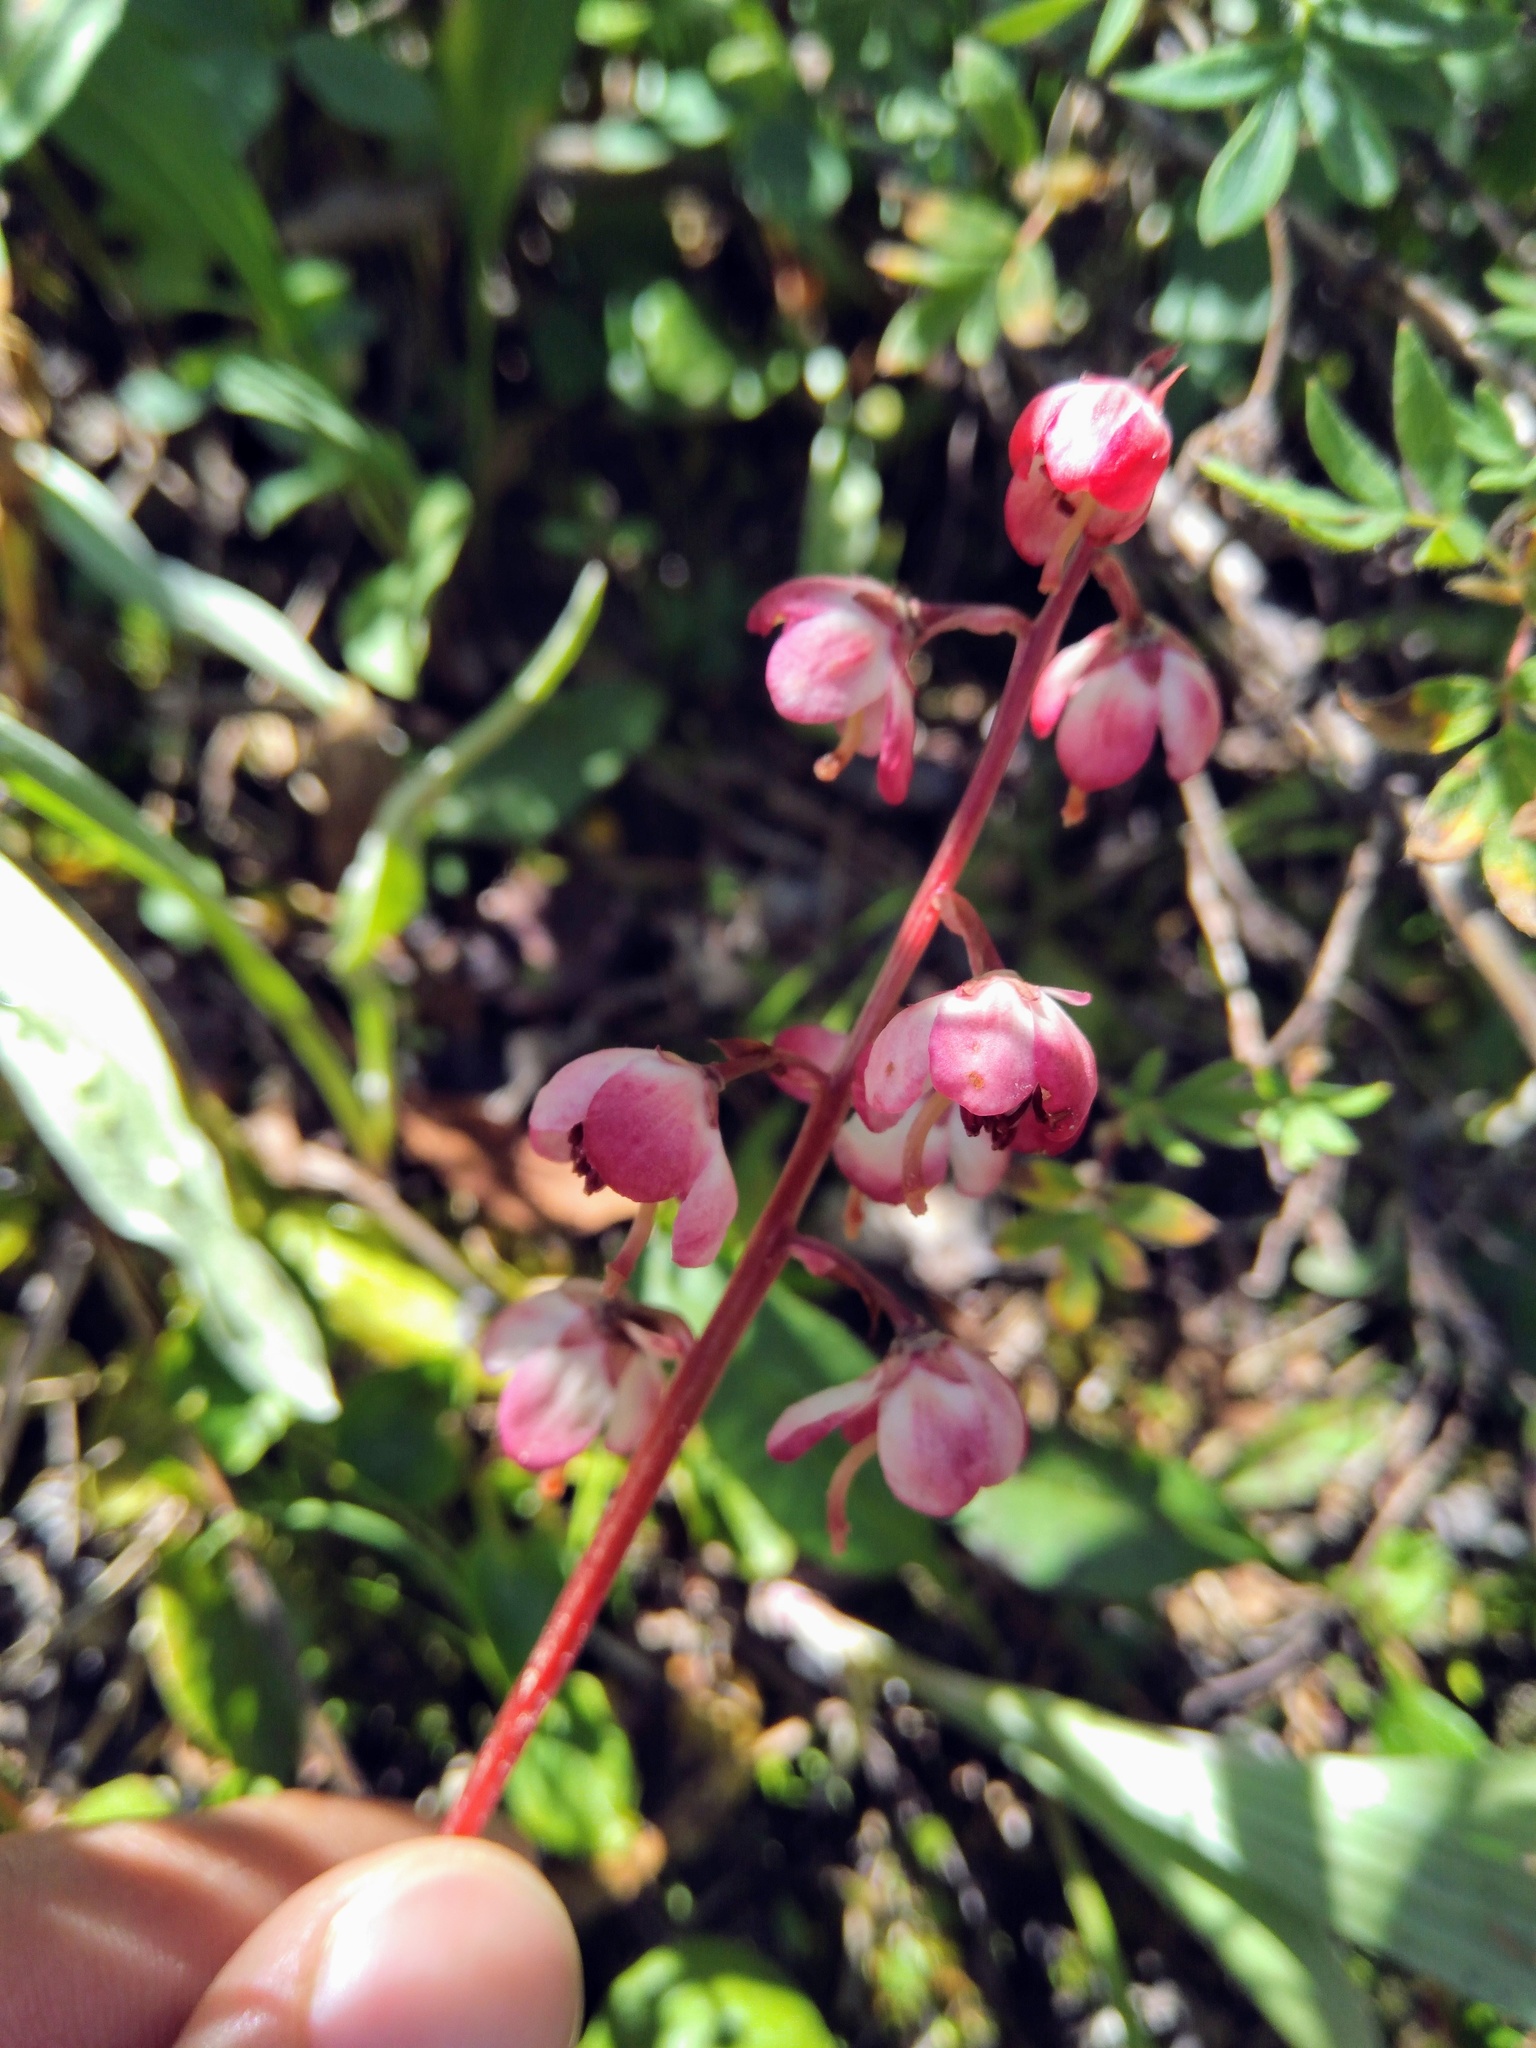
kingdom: Plantae
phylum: Tracheophyta
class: Magnoliopsida
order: Ericales
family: Ericaceae
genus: Pyrola
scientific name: Pyrola asarifolia
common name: Bog wintergreen
